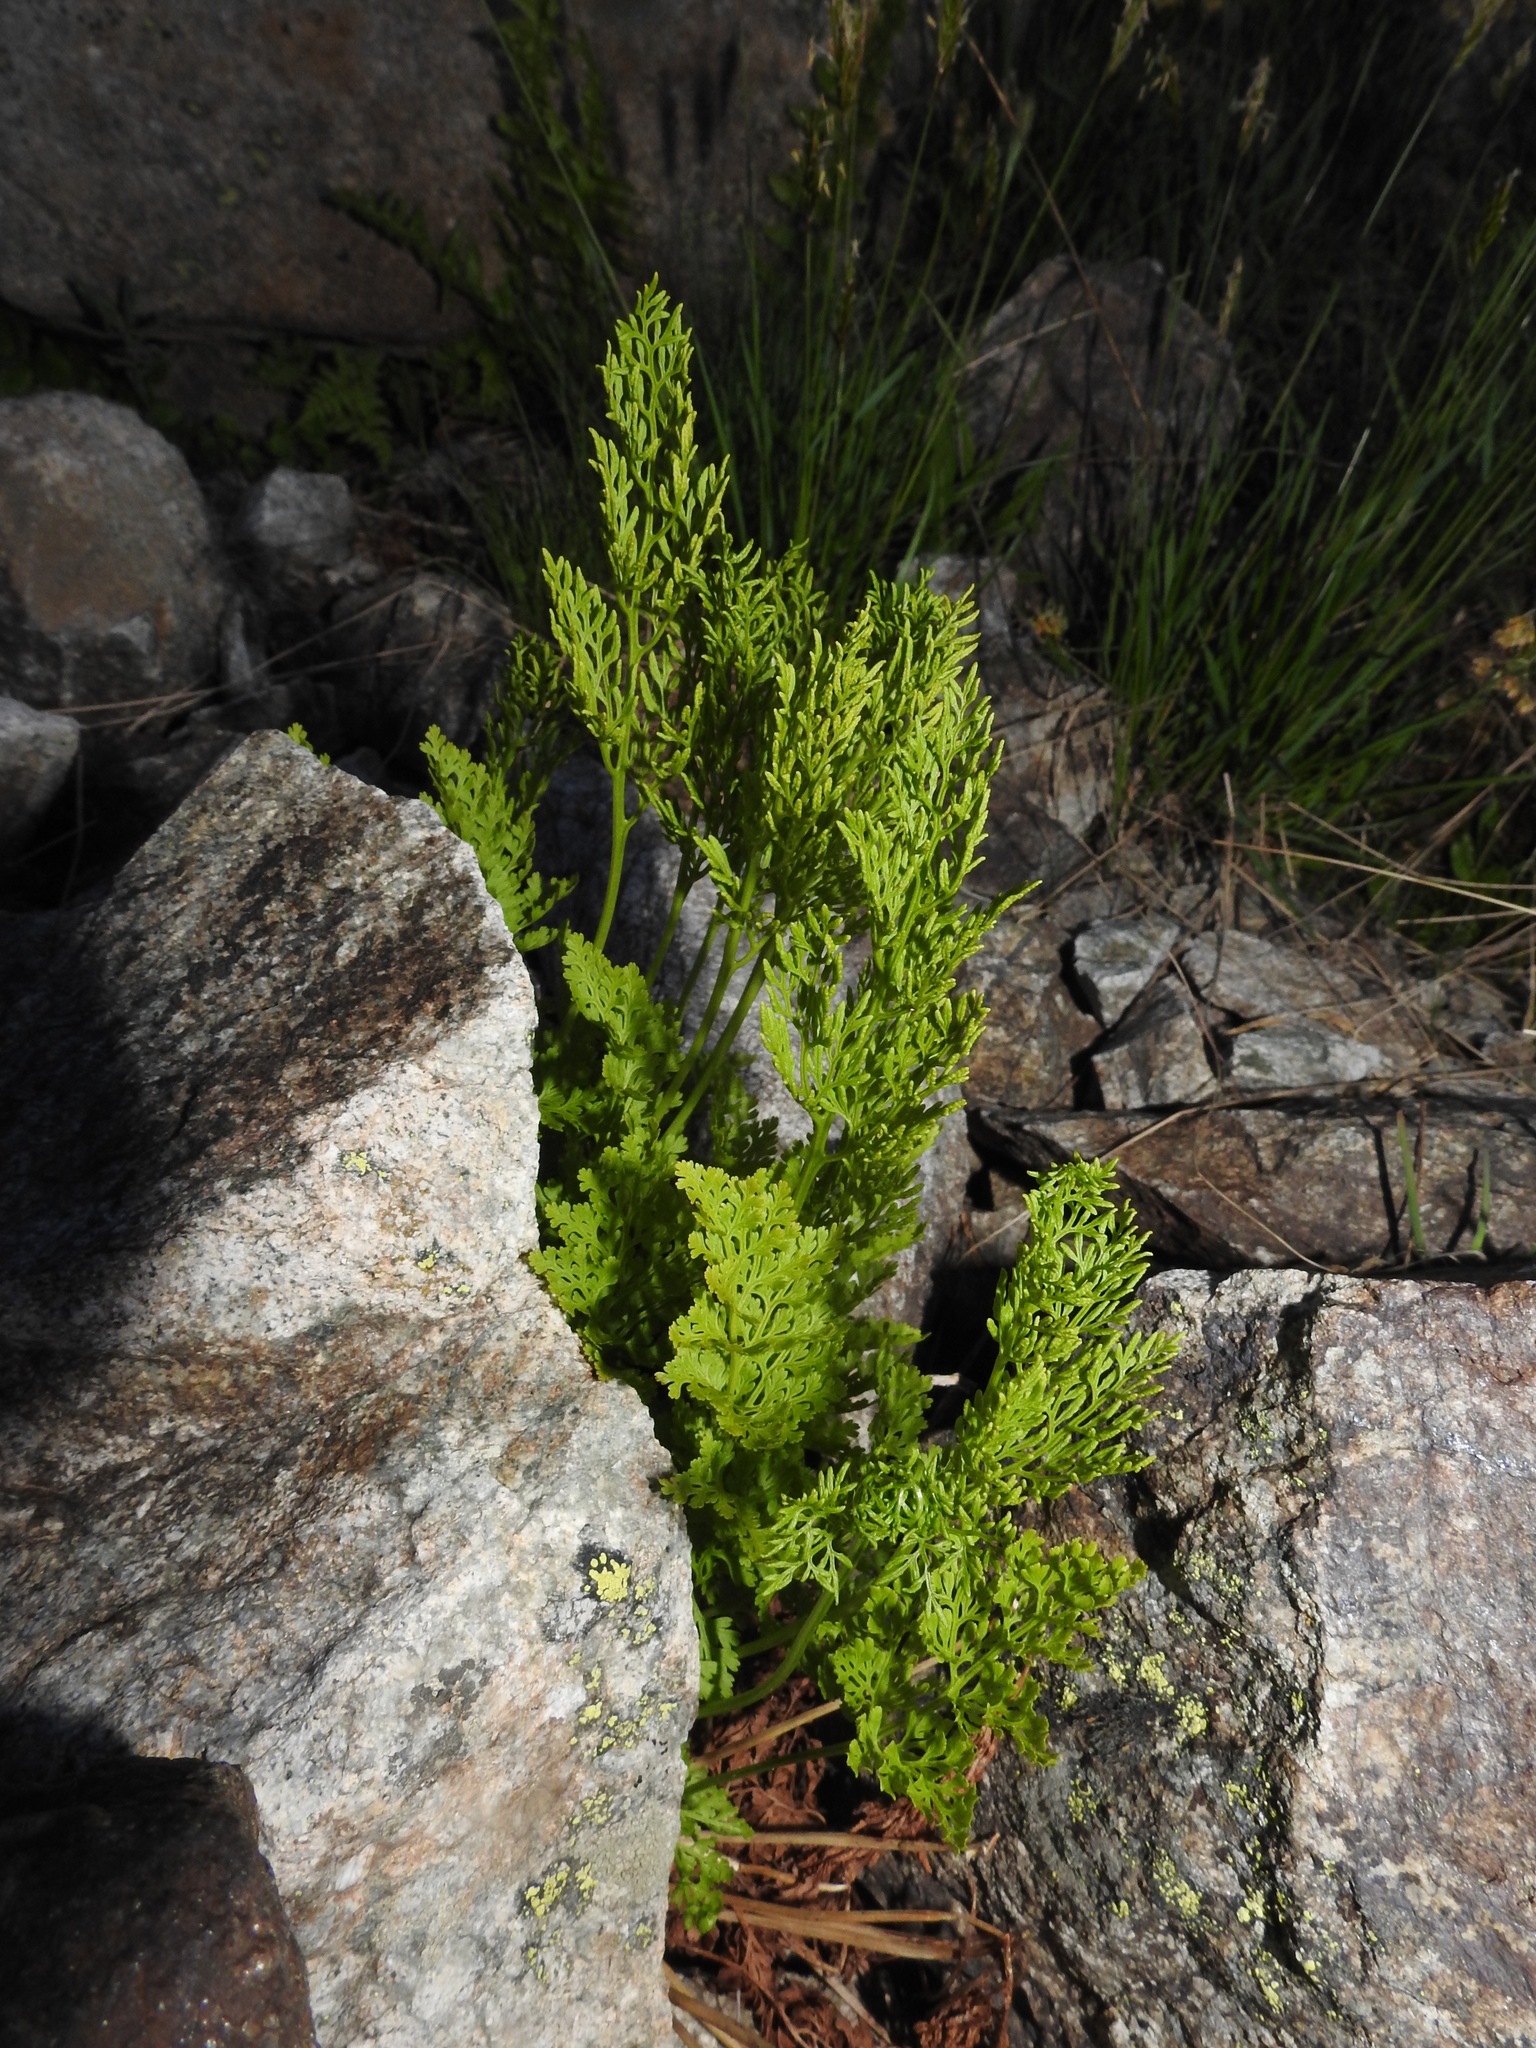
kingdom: Plantae
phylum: Tracheophyta
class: Polypodiopsida
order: Polypodiales
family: Pteridaceae
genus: Cryptogramma
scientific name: Cryptogramma crispa
